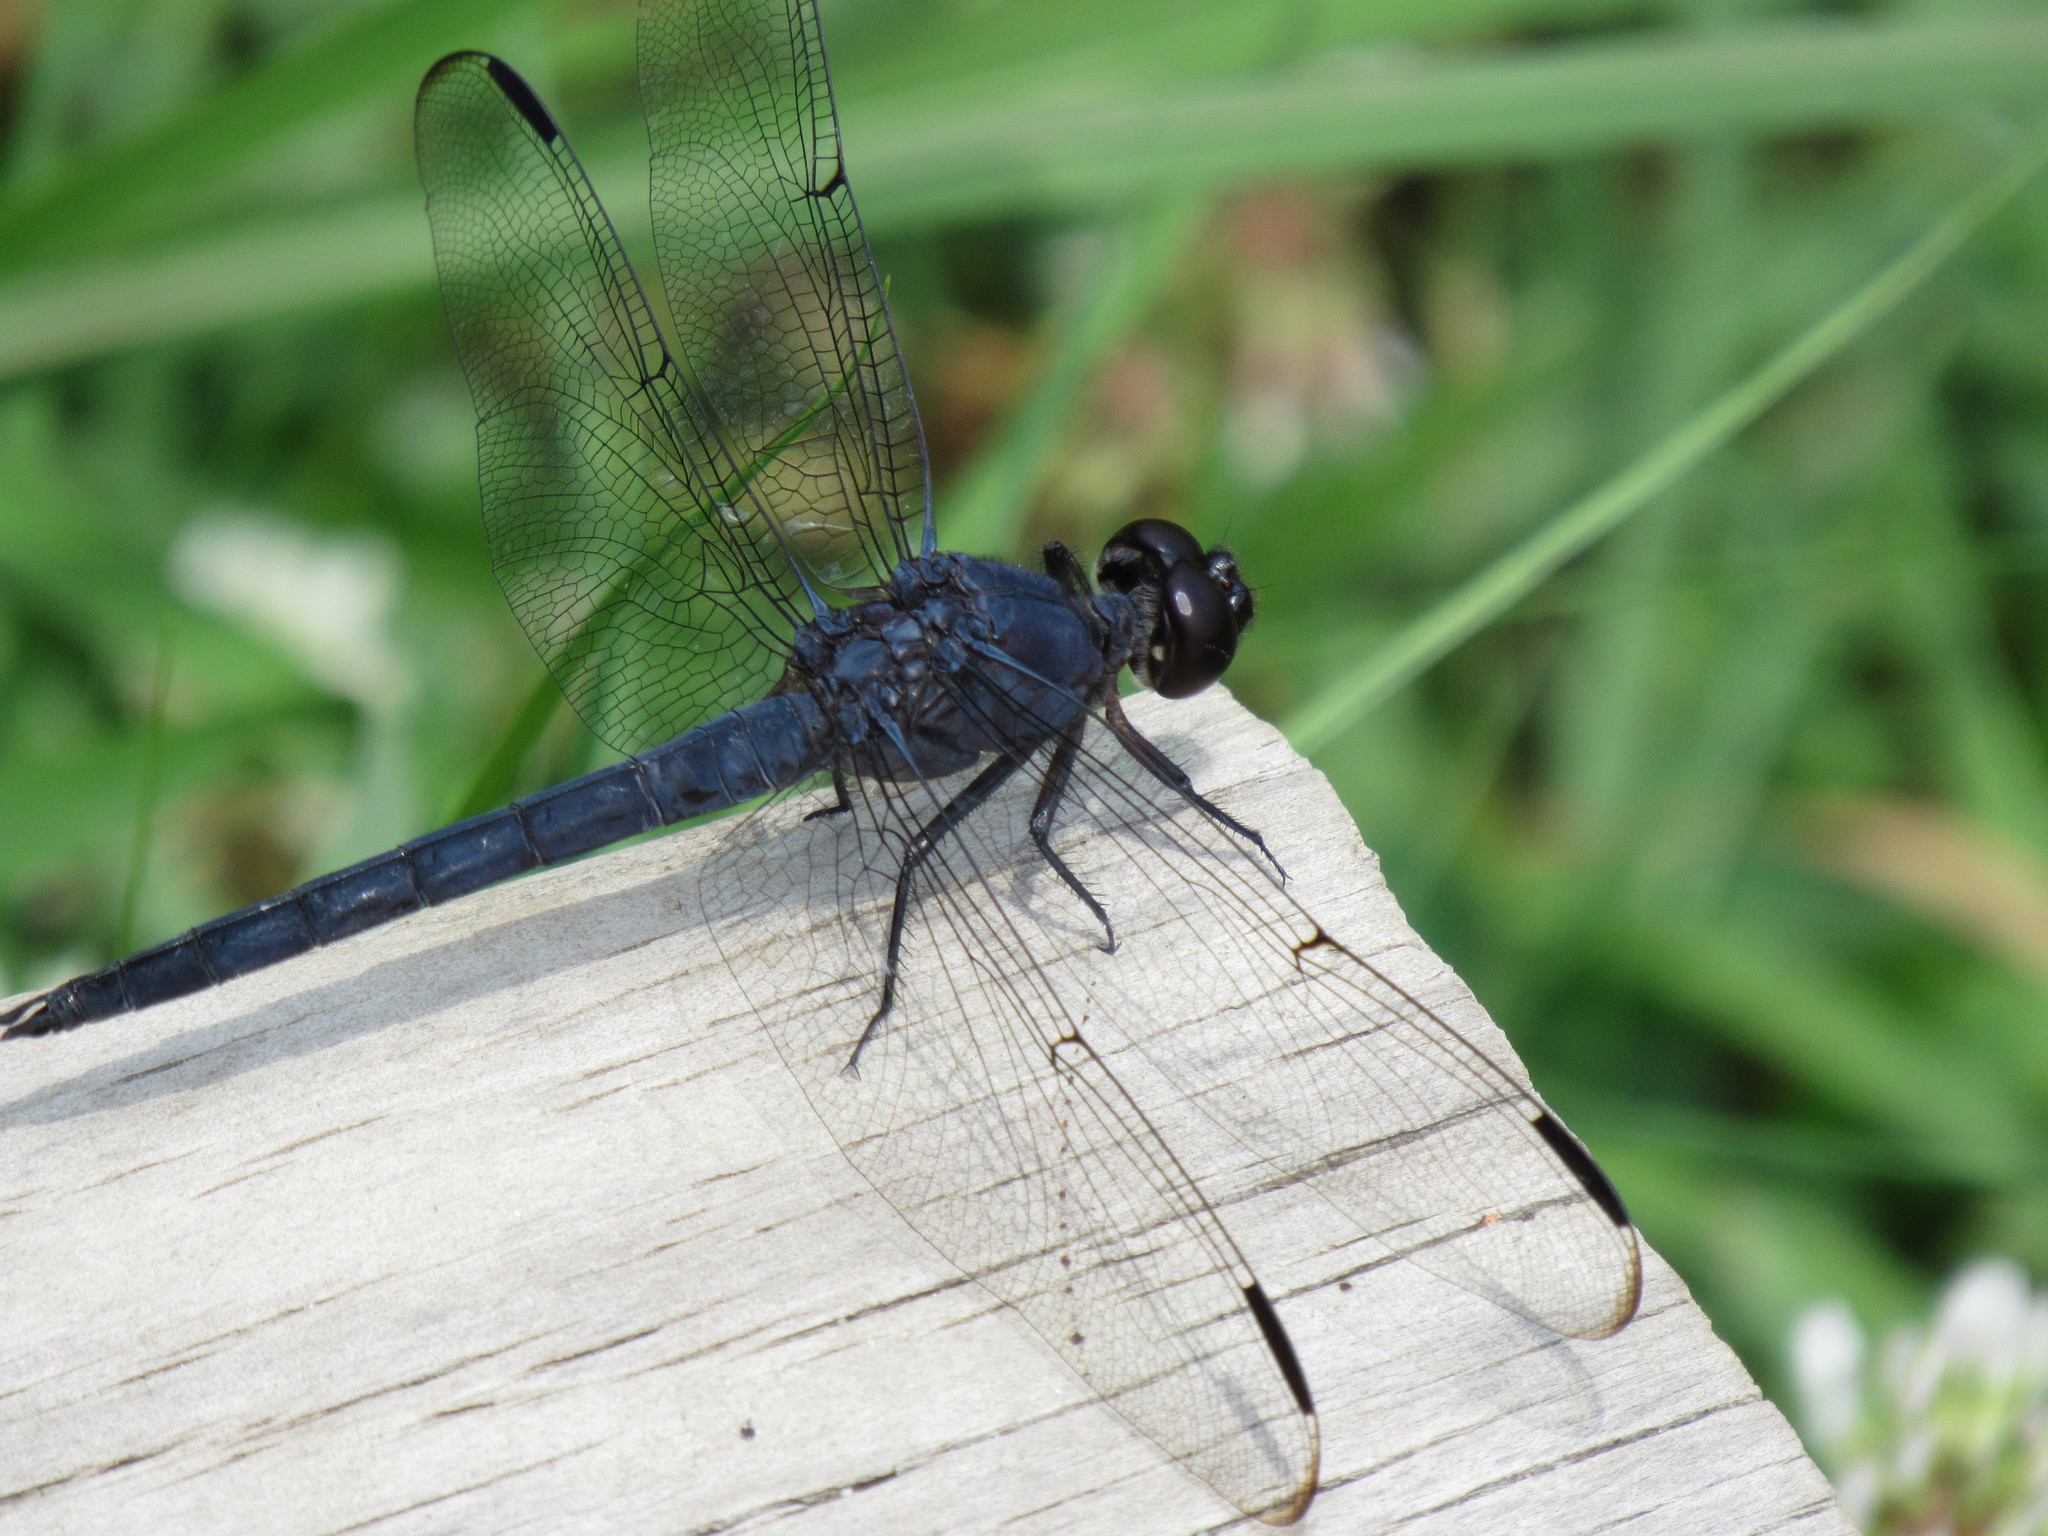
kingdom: Animalia
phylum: Arthropoda
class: Insecta
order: Odonata
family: Libellulidae
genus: Libellula
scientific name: Libellula incesta
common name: Slaty skimmer
